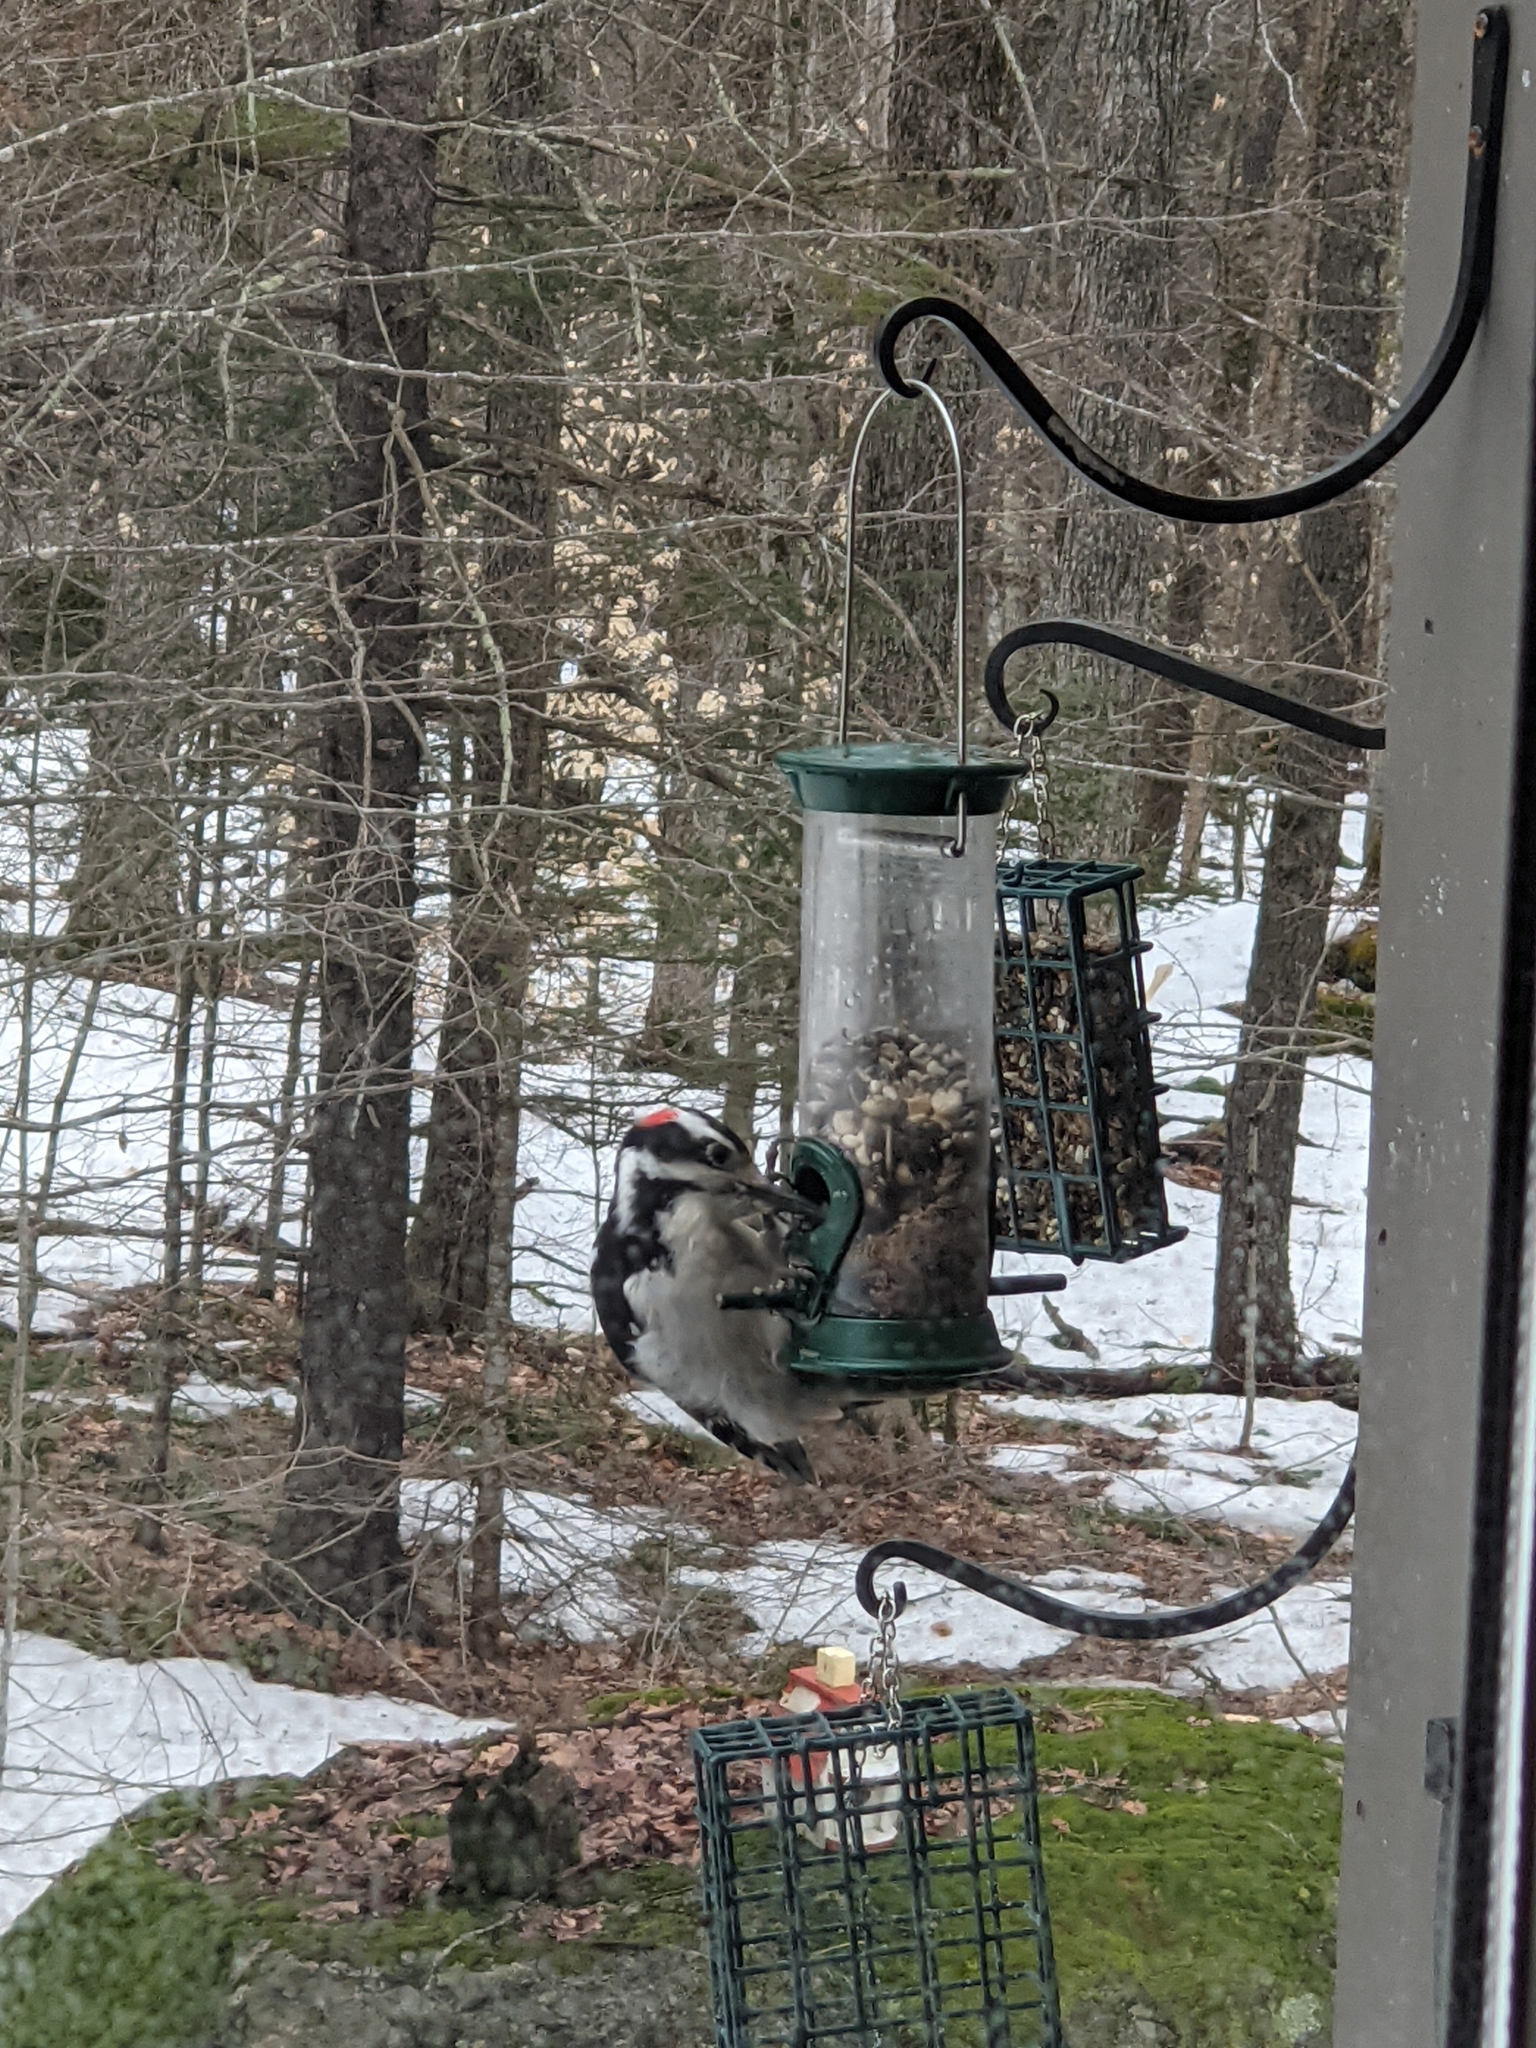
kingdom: Animalia
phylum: Chordata
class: Aves
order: Piciformes
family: Picidae
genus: Leuconotopicus
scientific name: Leuconotopicus villosus
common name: Hairy woodpecker
